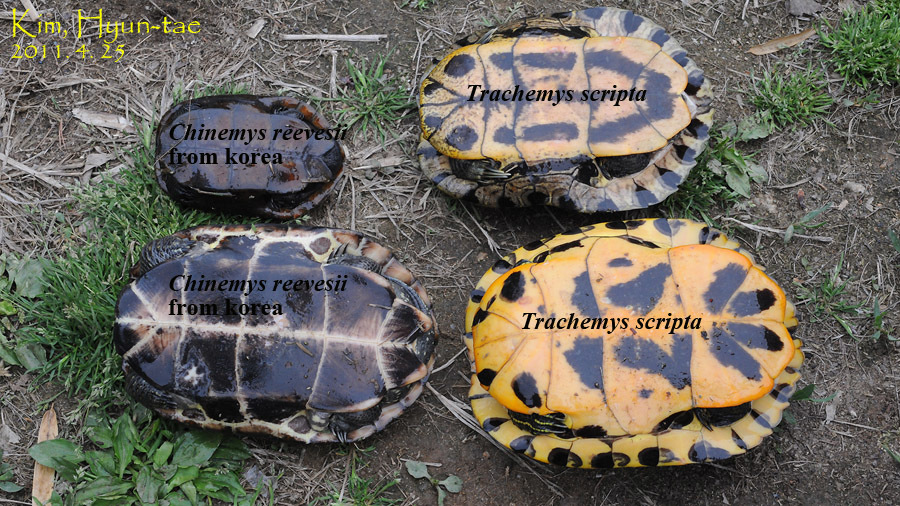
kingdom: Animalia
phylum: Chordata
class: Testudines
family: Geoemydidae
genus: Mauremys
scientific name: Mauremys reevesii
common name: Chinese pond turtle
